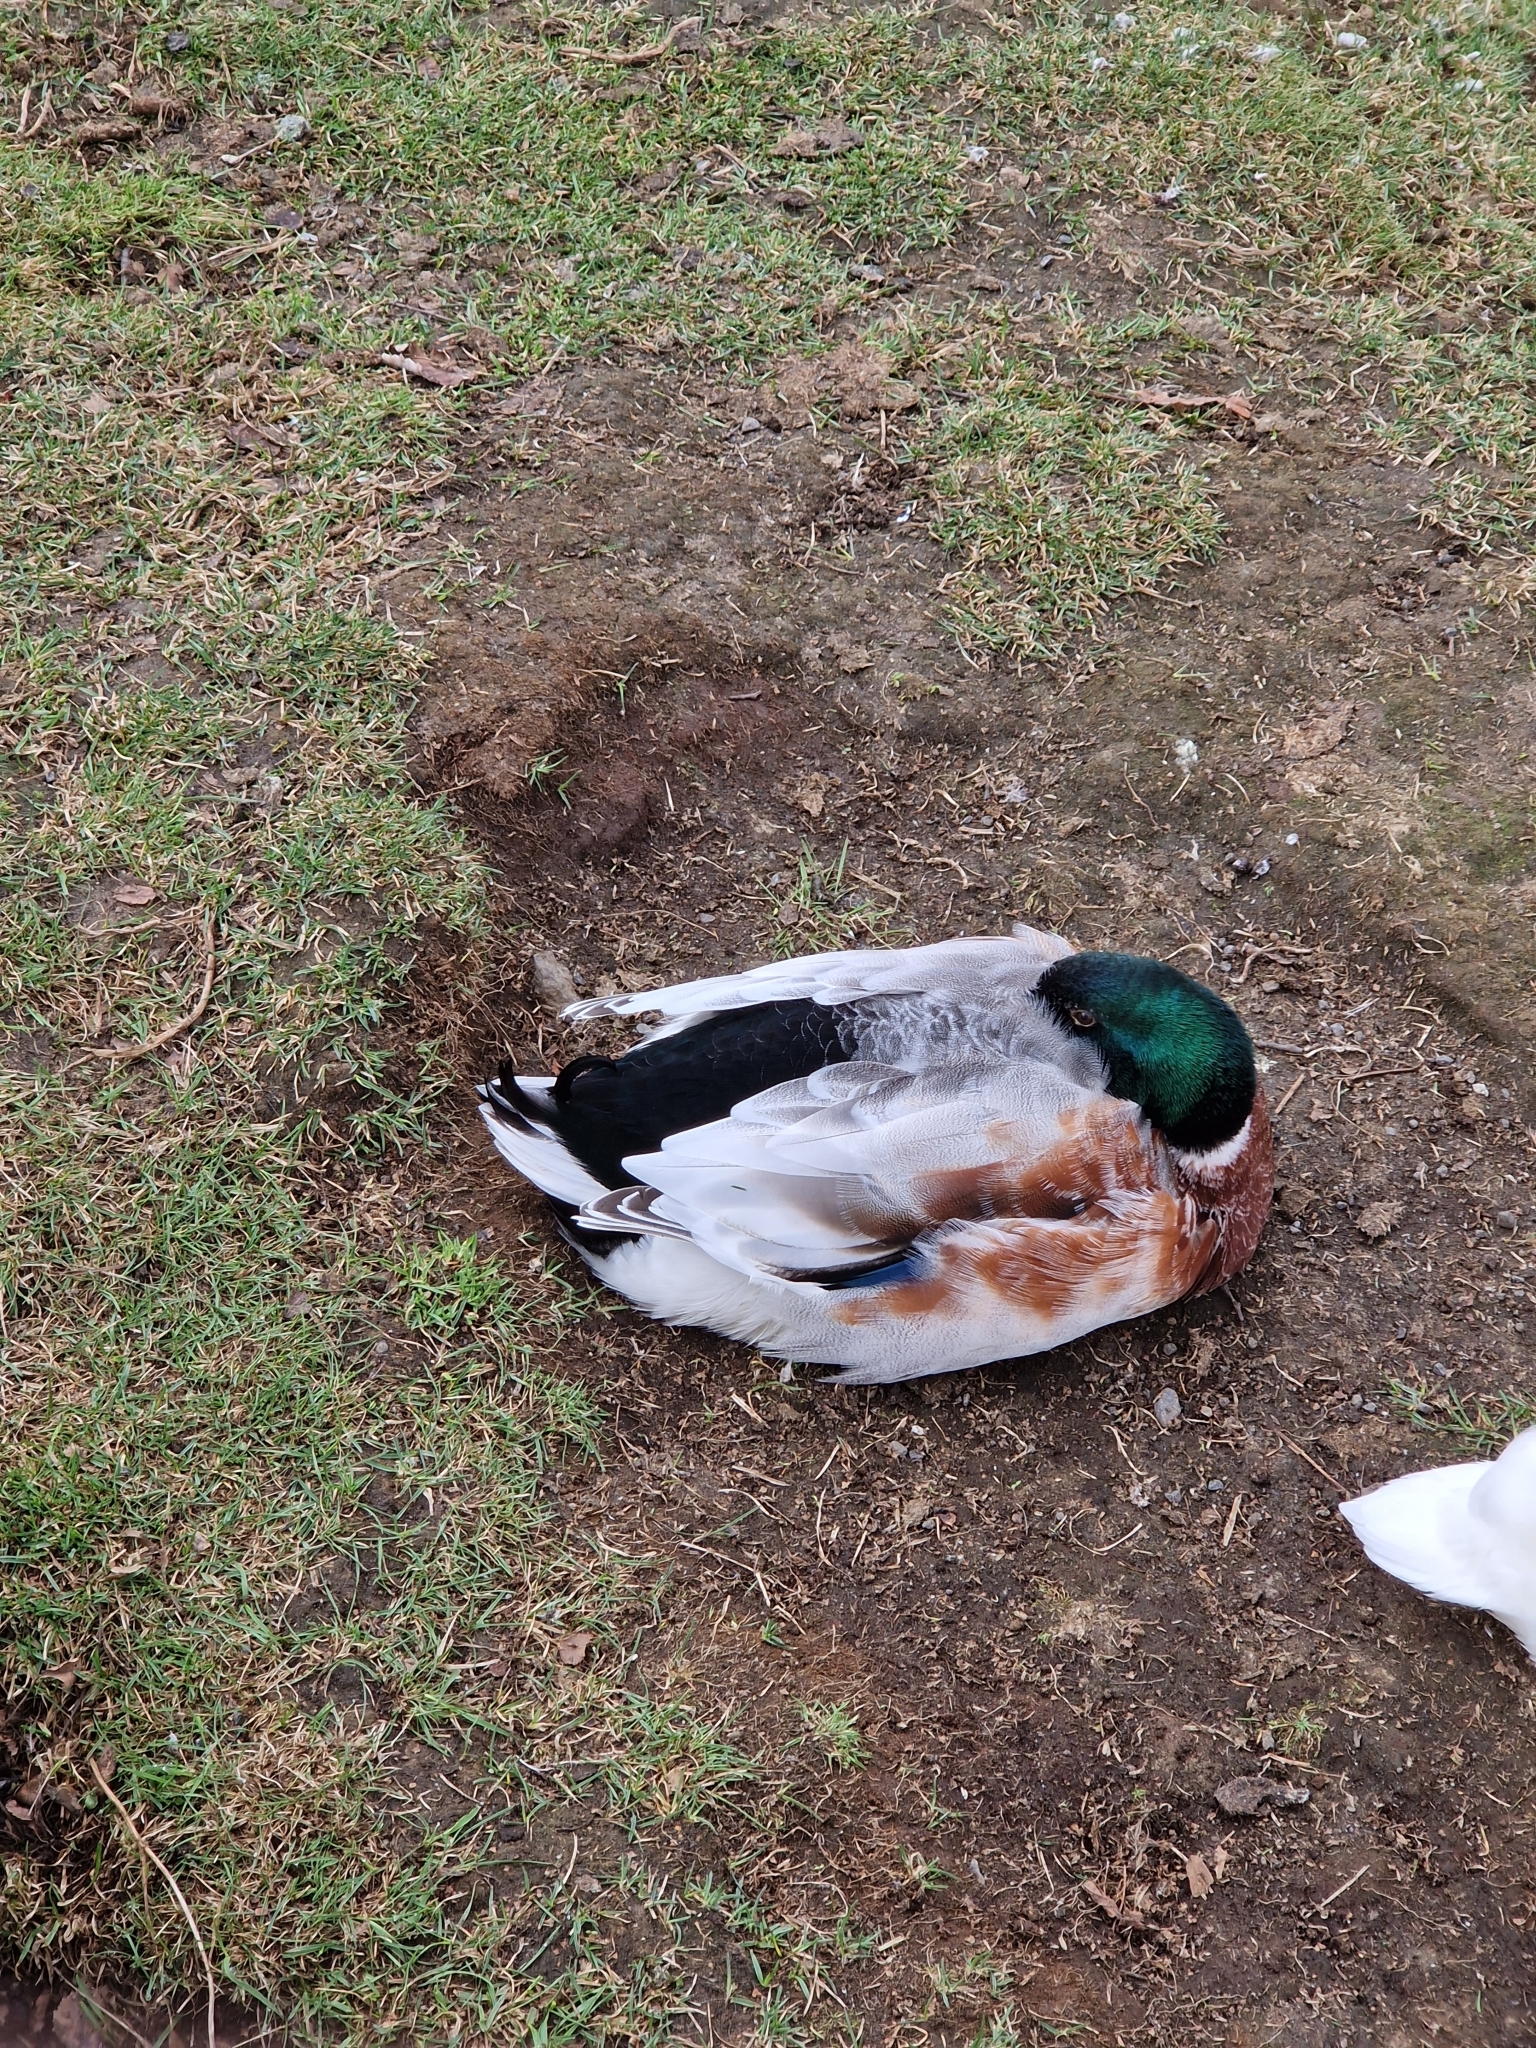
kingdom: Animalia
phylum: Chordata
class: Aves
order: Anseriformes
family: Anatidae
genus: Anas
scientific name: Anas platyrhynchos
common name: Mallard
